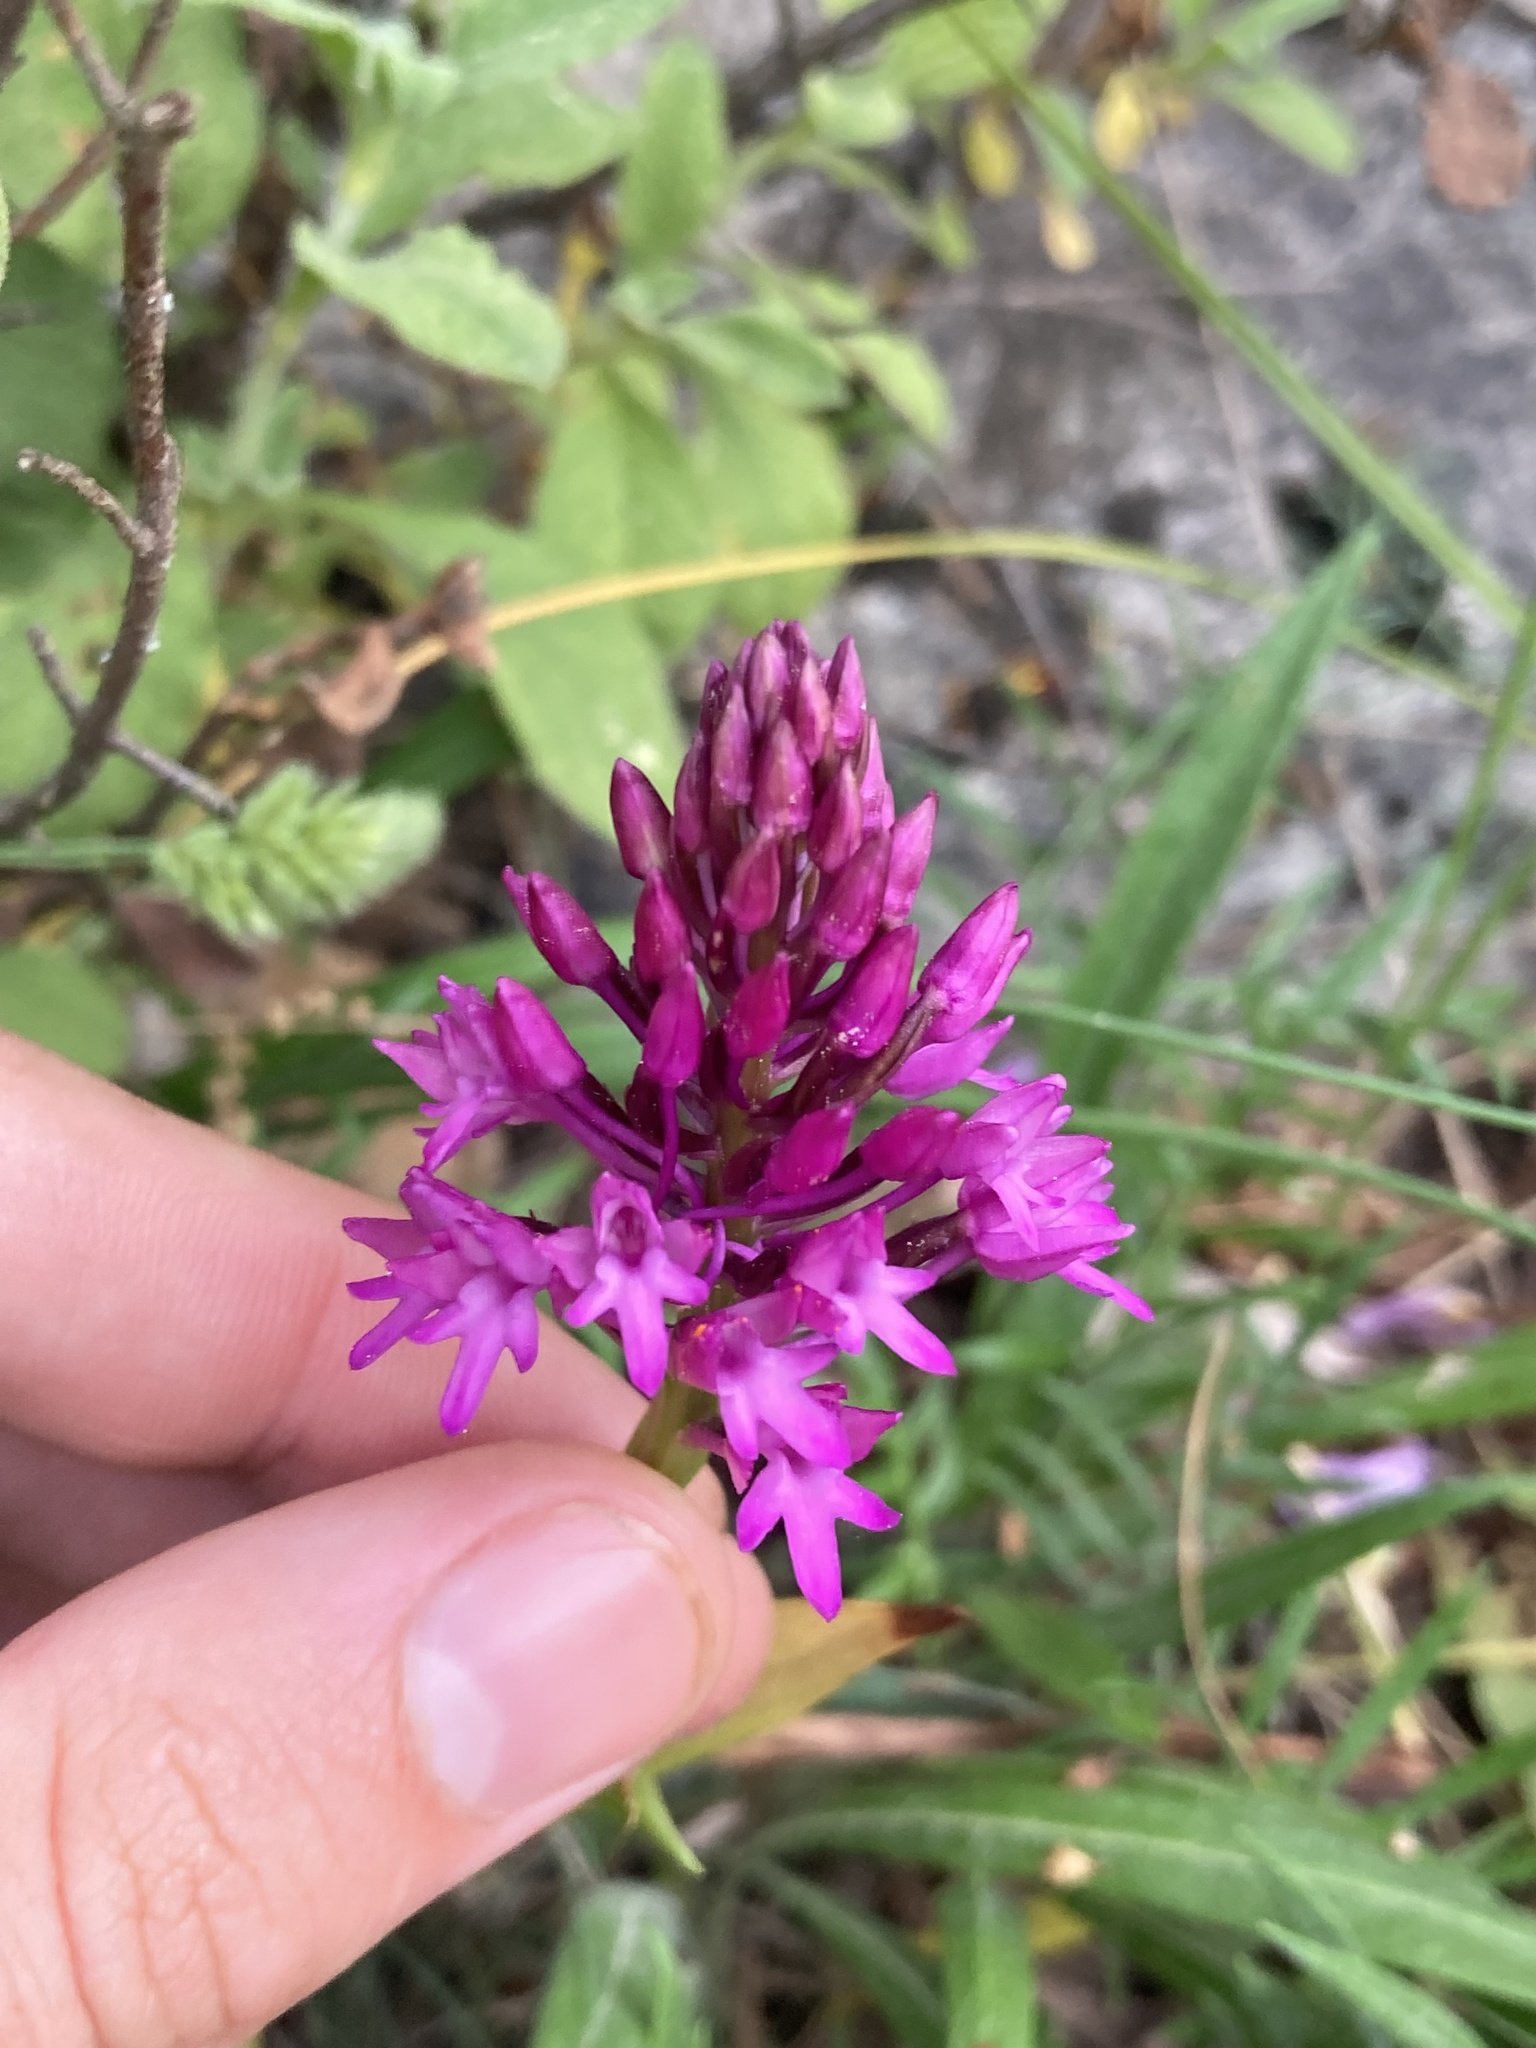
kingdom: Plantae
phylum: Tracheophyta
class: Liliopsida
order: Asparagales
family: Orchidaceae
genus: Anacamptis
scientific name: Anacamptis pyramidalis
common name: Pyramidal orchid
